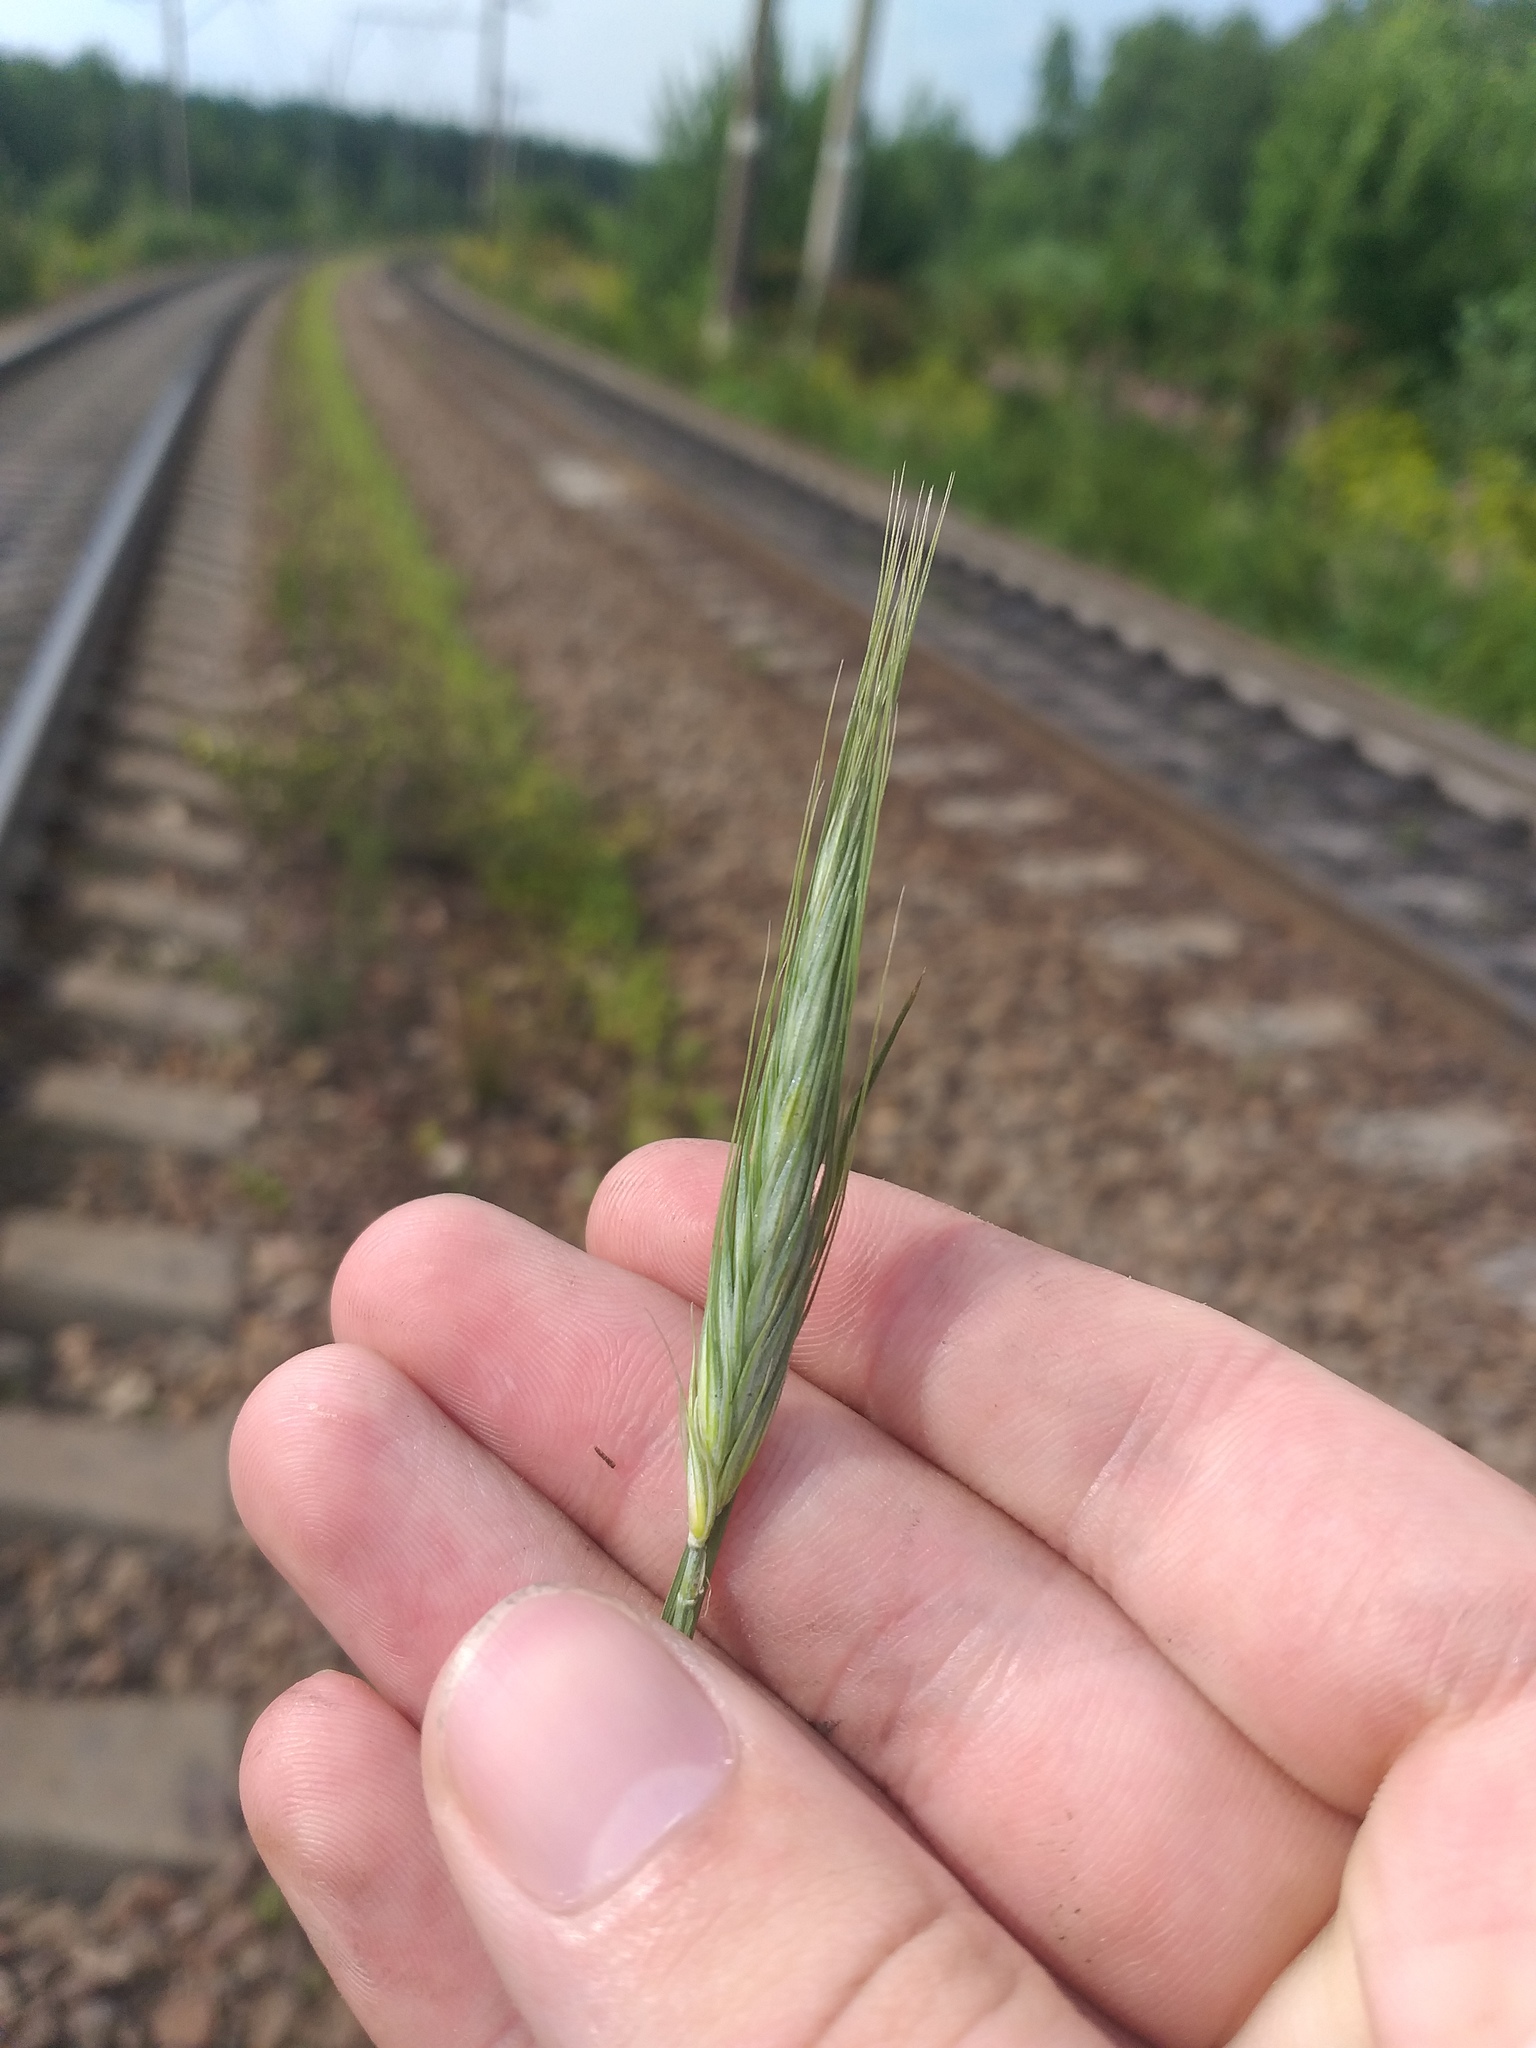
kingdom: Plantae
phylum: Tracheophyta
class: Liliopsida
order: Poales
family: Poaceae
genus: Secale
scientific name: Secale cereale
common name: Rye
